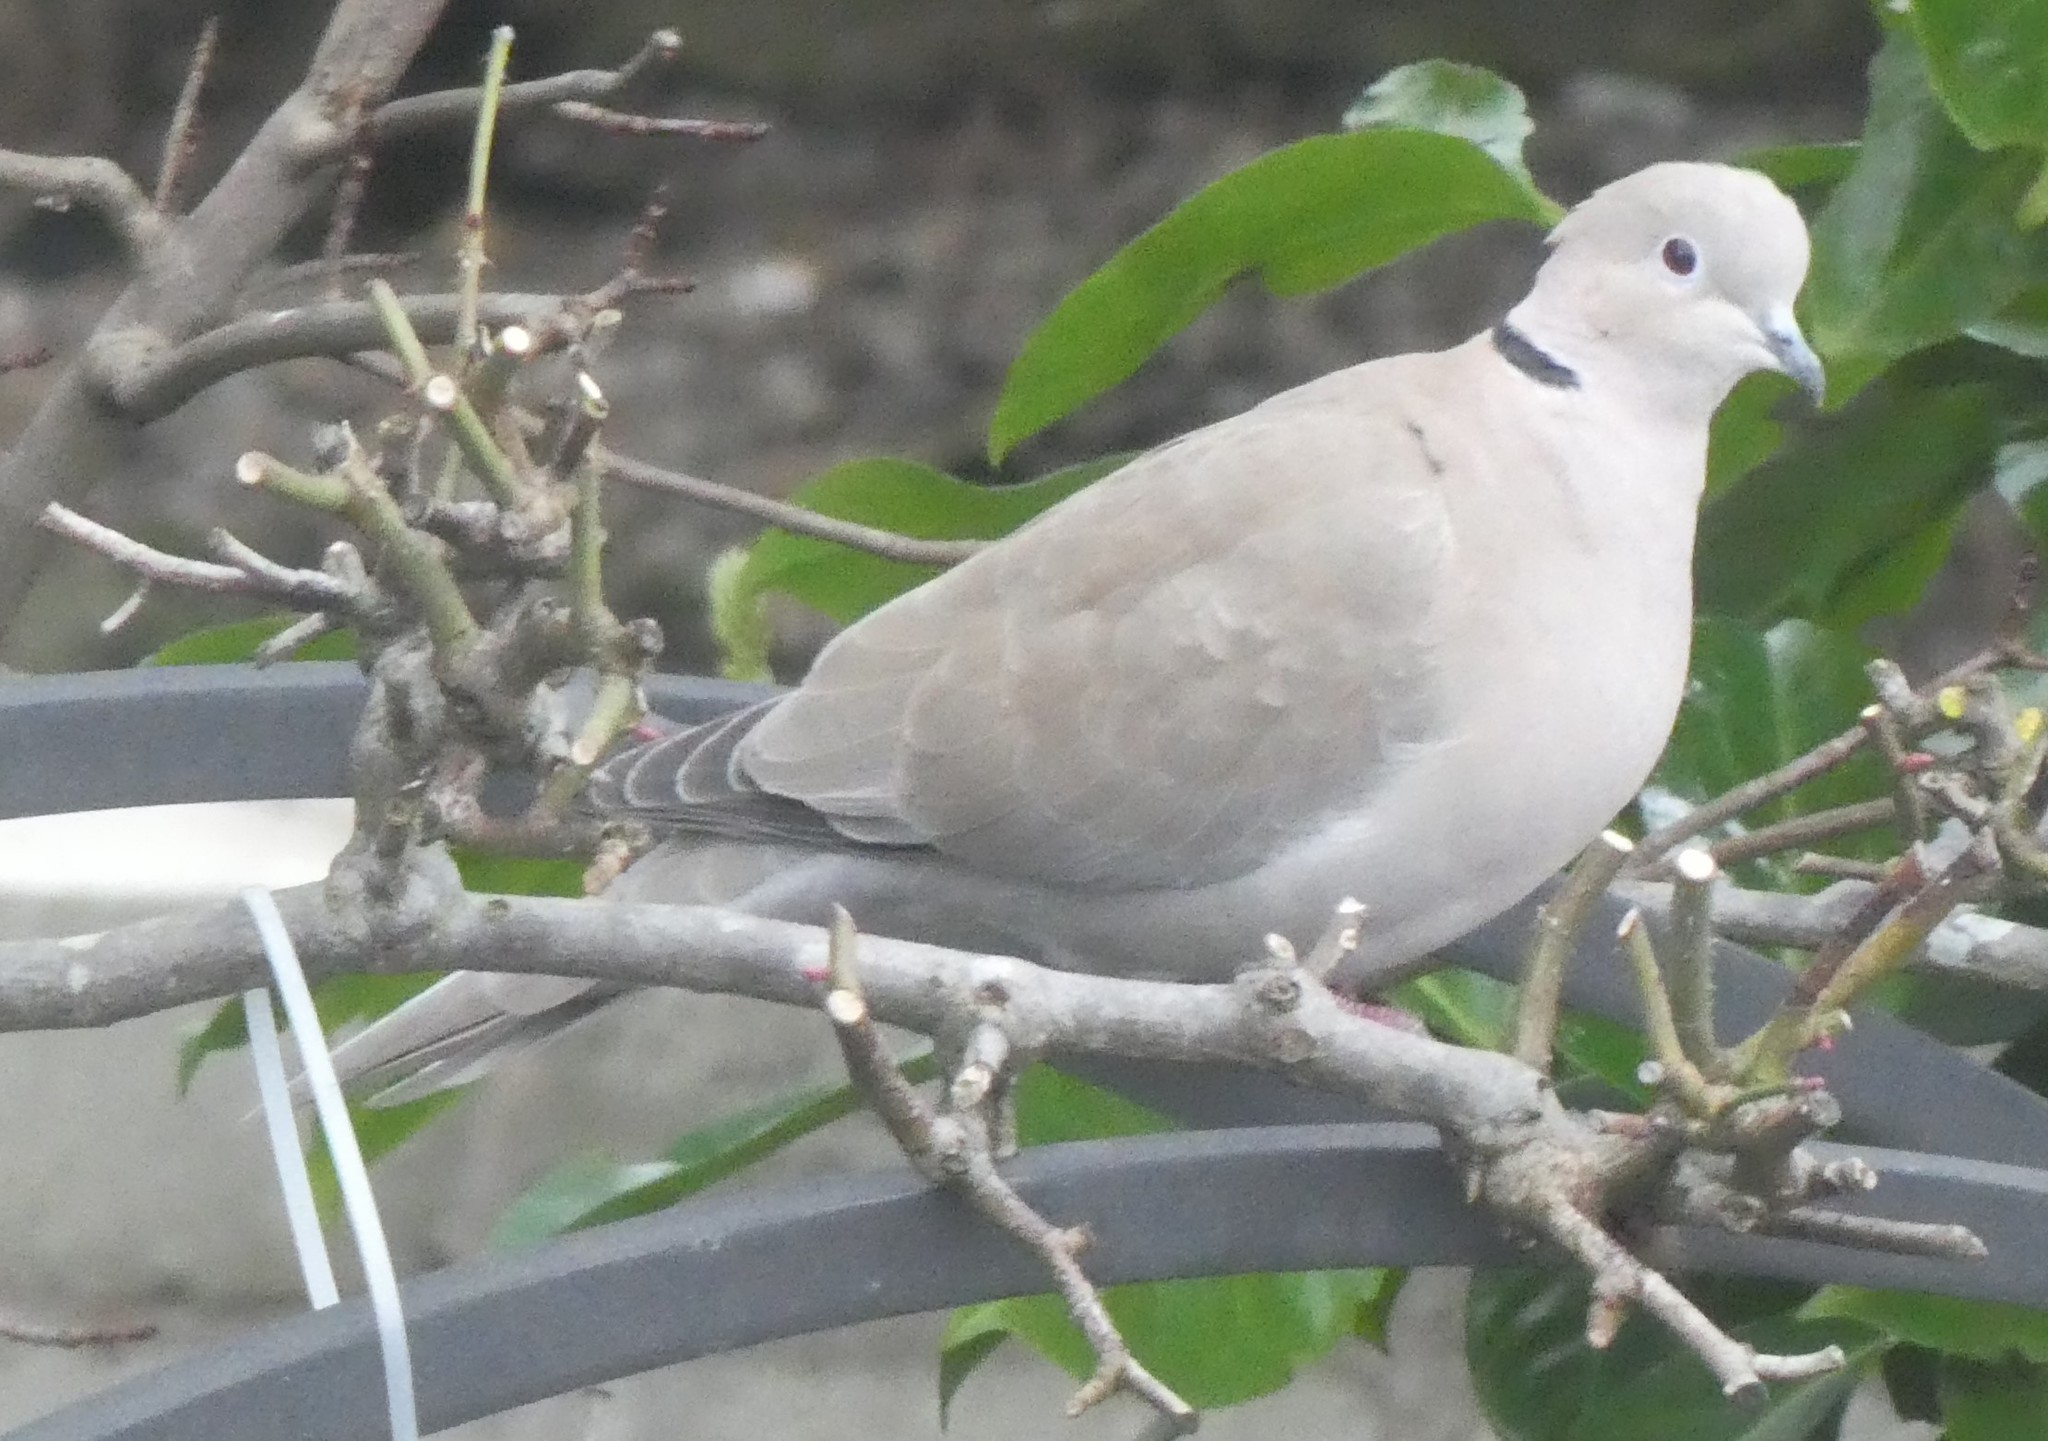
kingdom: Animalia
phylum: Chordata
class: Aves
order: Columbiformes
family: Columbidae
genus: Streptopelia
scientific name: Streptopelia decaocto
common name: Eurasian collared dove
